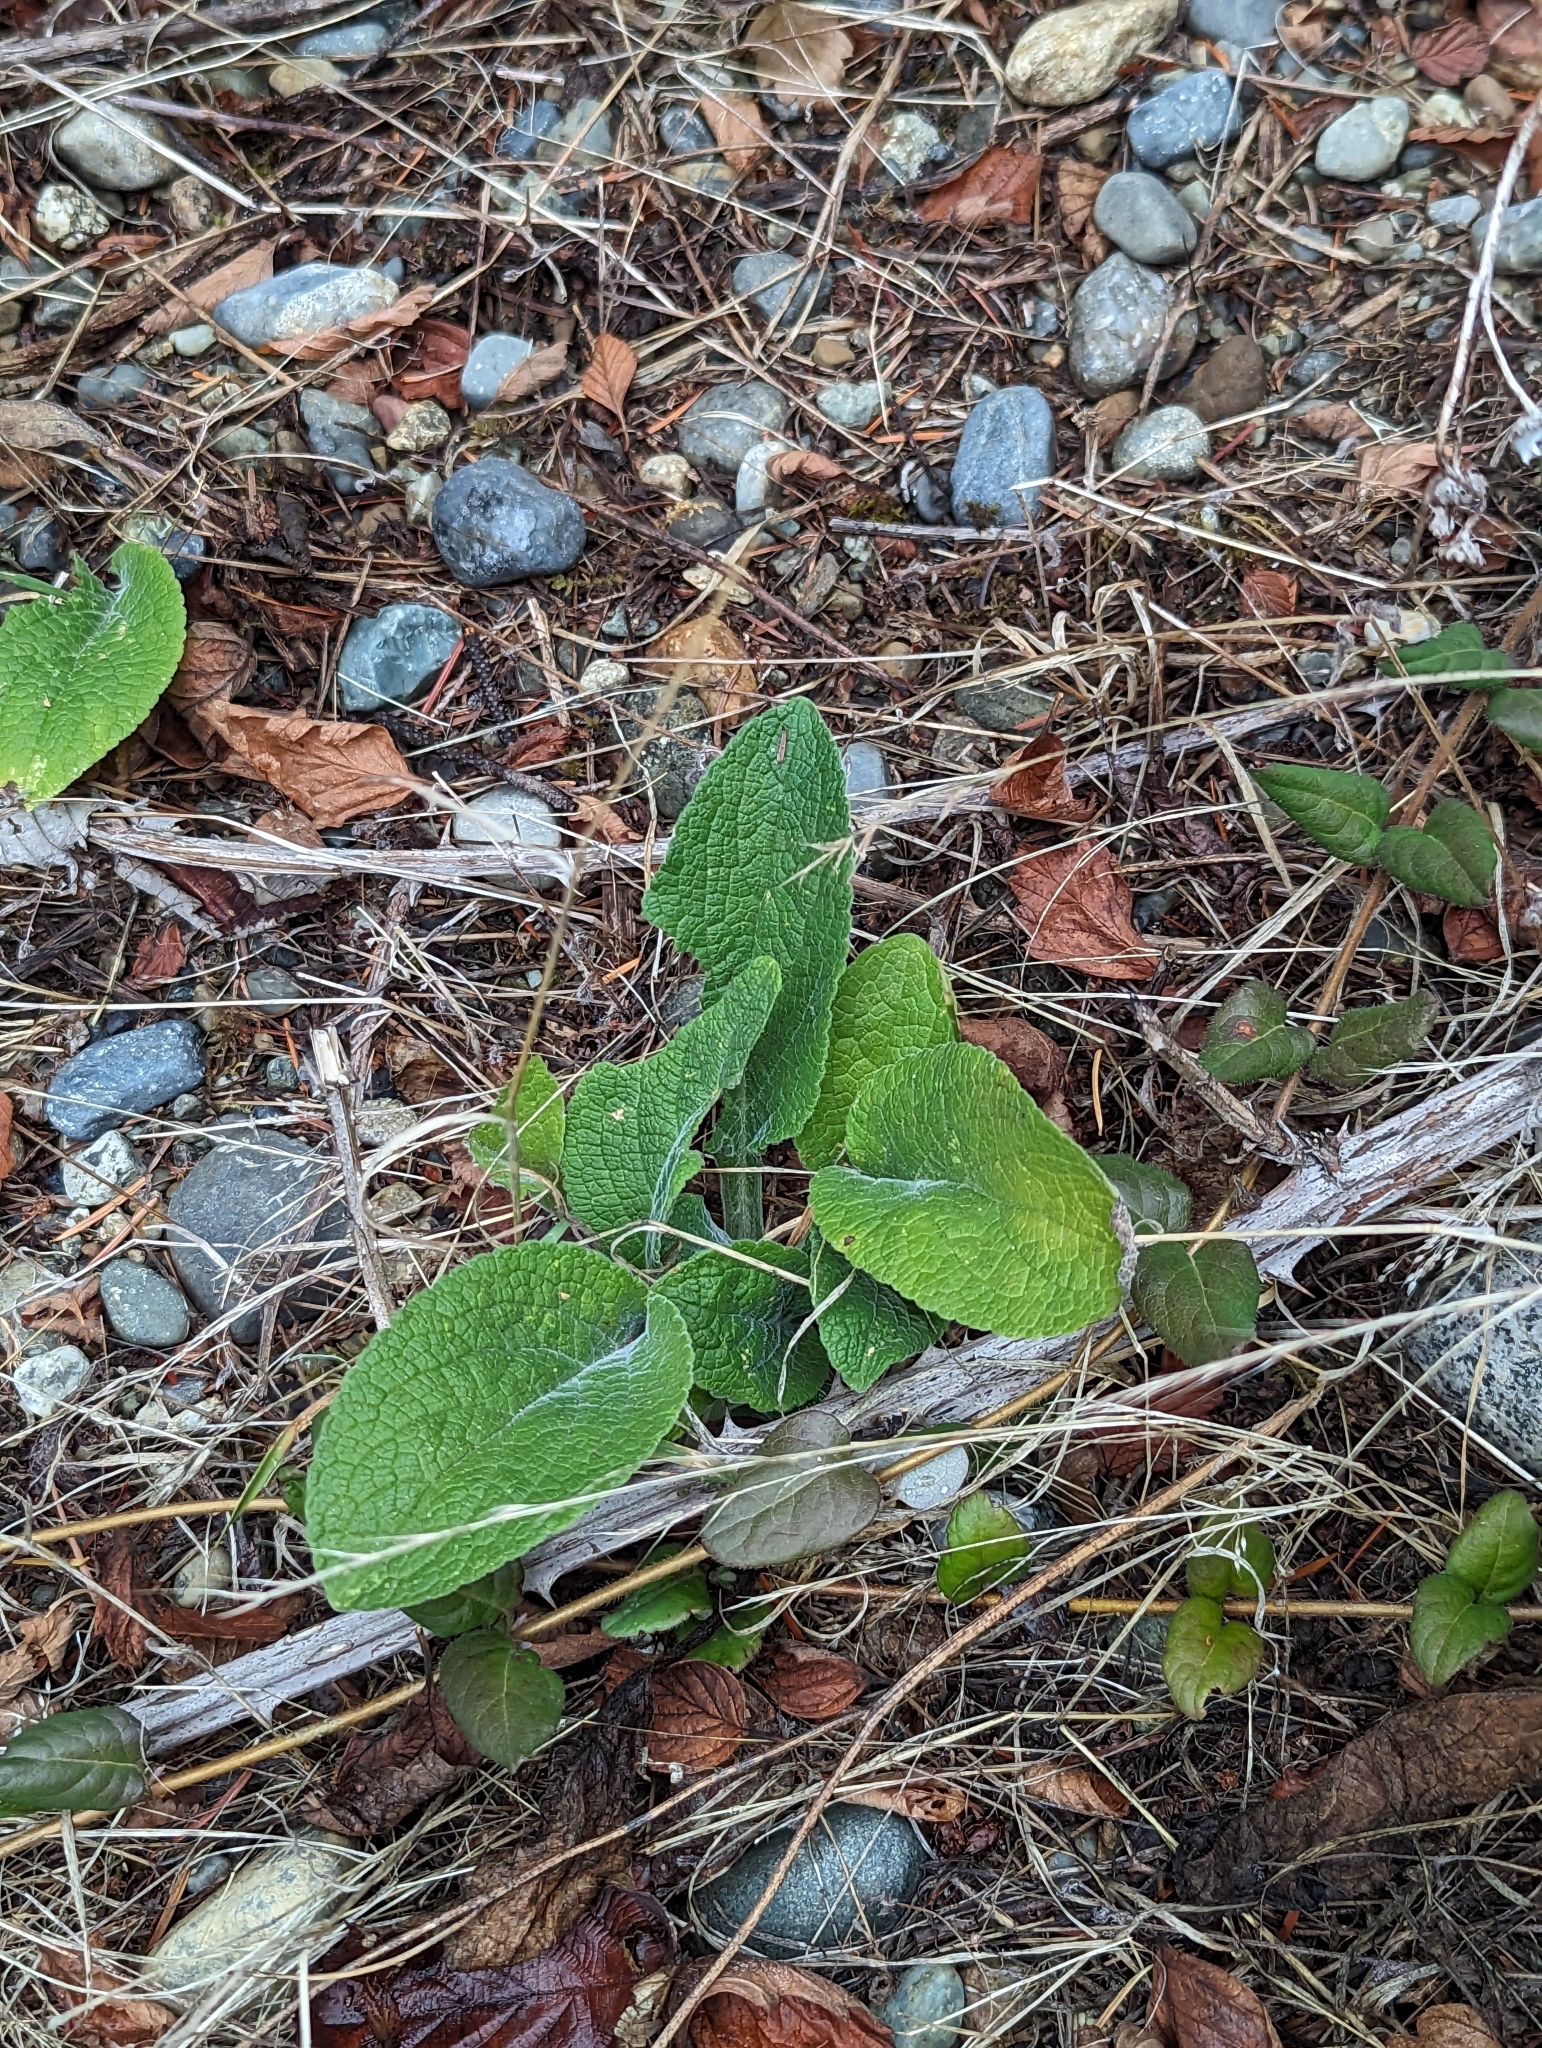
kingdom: Plantae
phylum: Tracheophyta
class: Magnoliopsida
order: Lamiales
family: Plantaginaceae
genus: Digitalis
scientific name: Digitalis purpurea
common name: Foxglove
